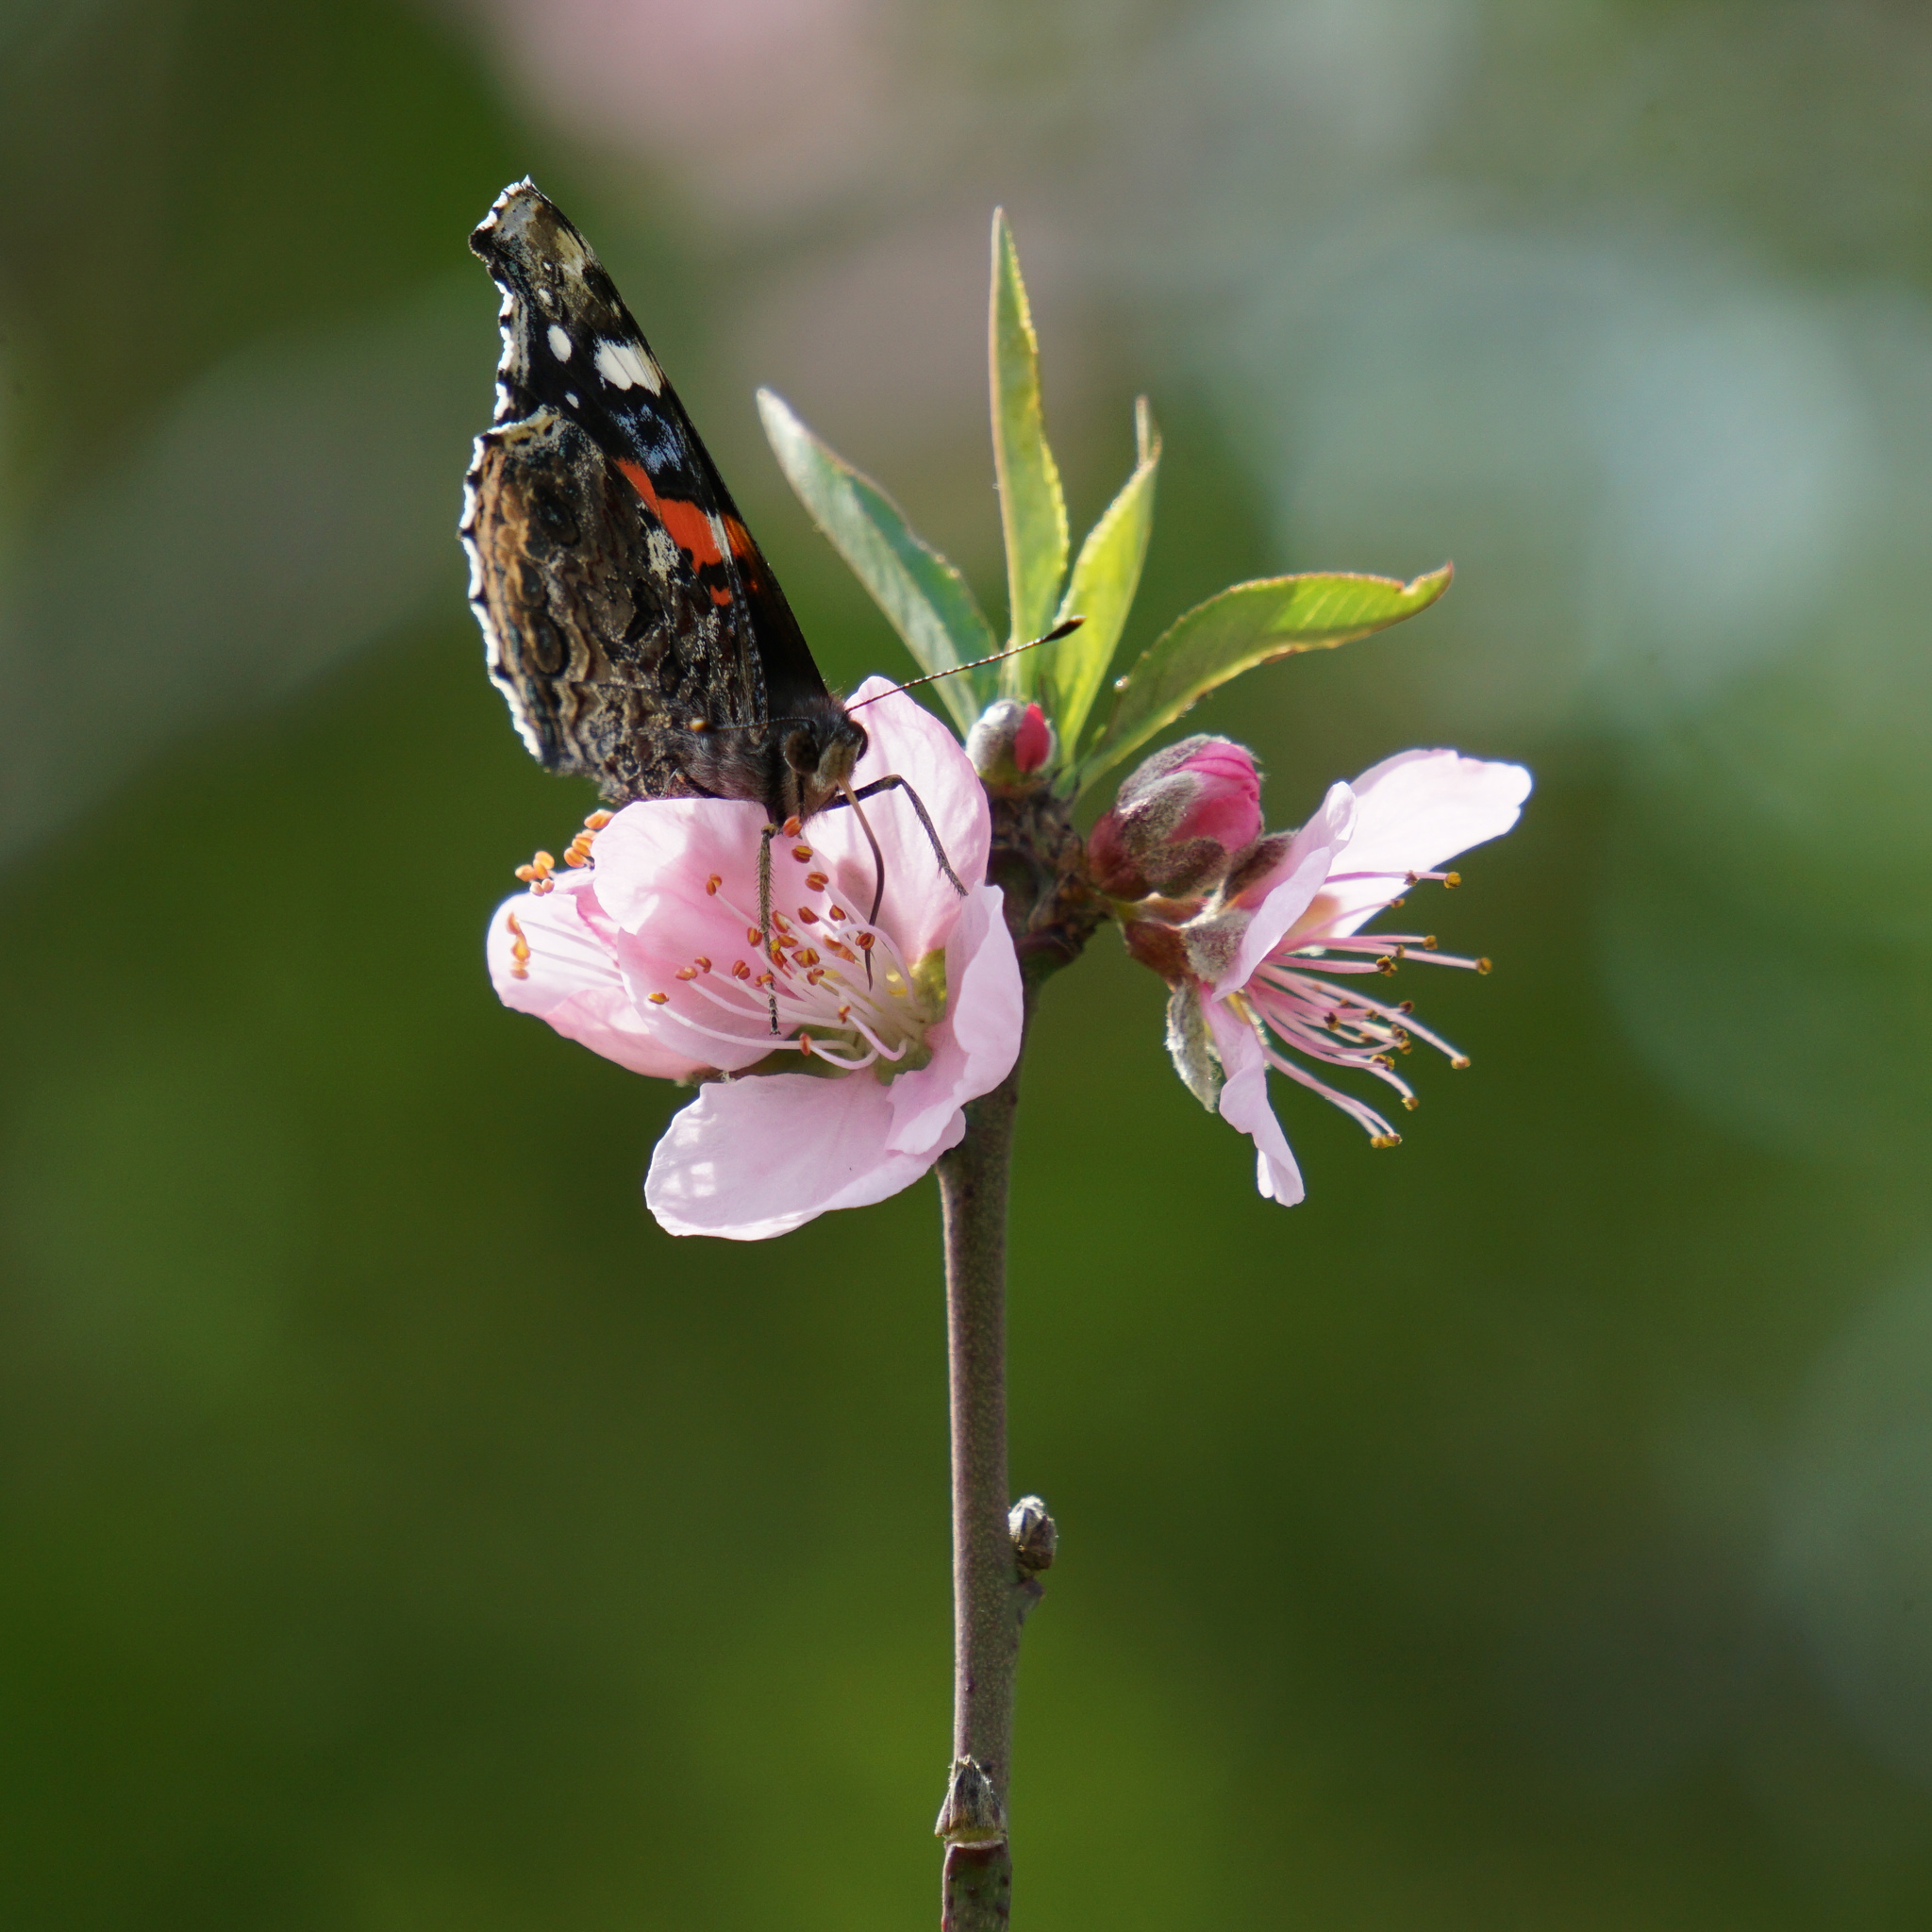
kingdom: Animalia
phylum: Arthropoda
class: Insecta
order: Lepidoptera
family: Nymphalidae
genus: Vanessa
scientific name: Vanessa atalanta
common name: Red admiral
